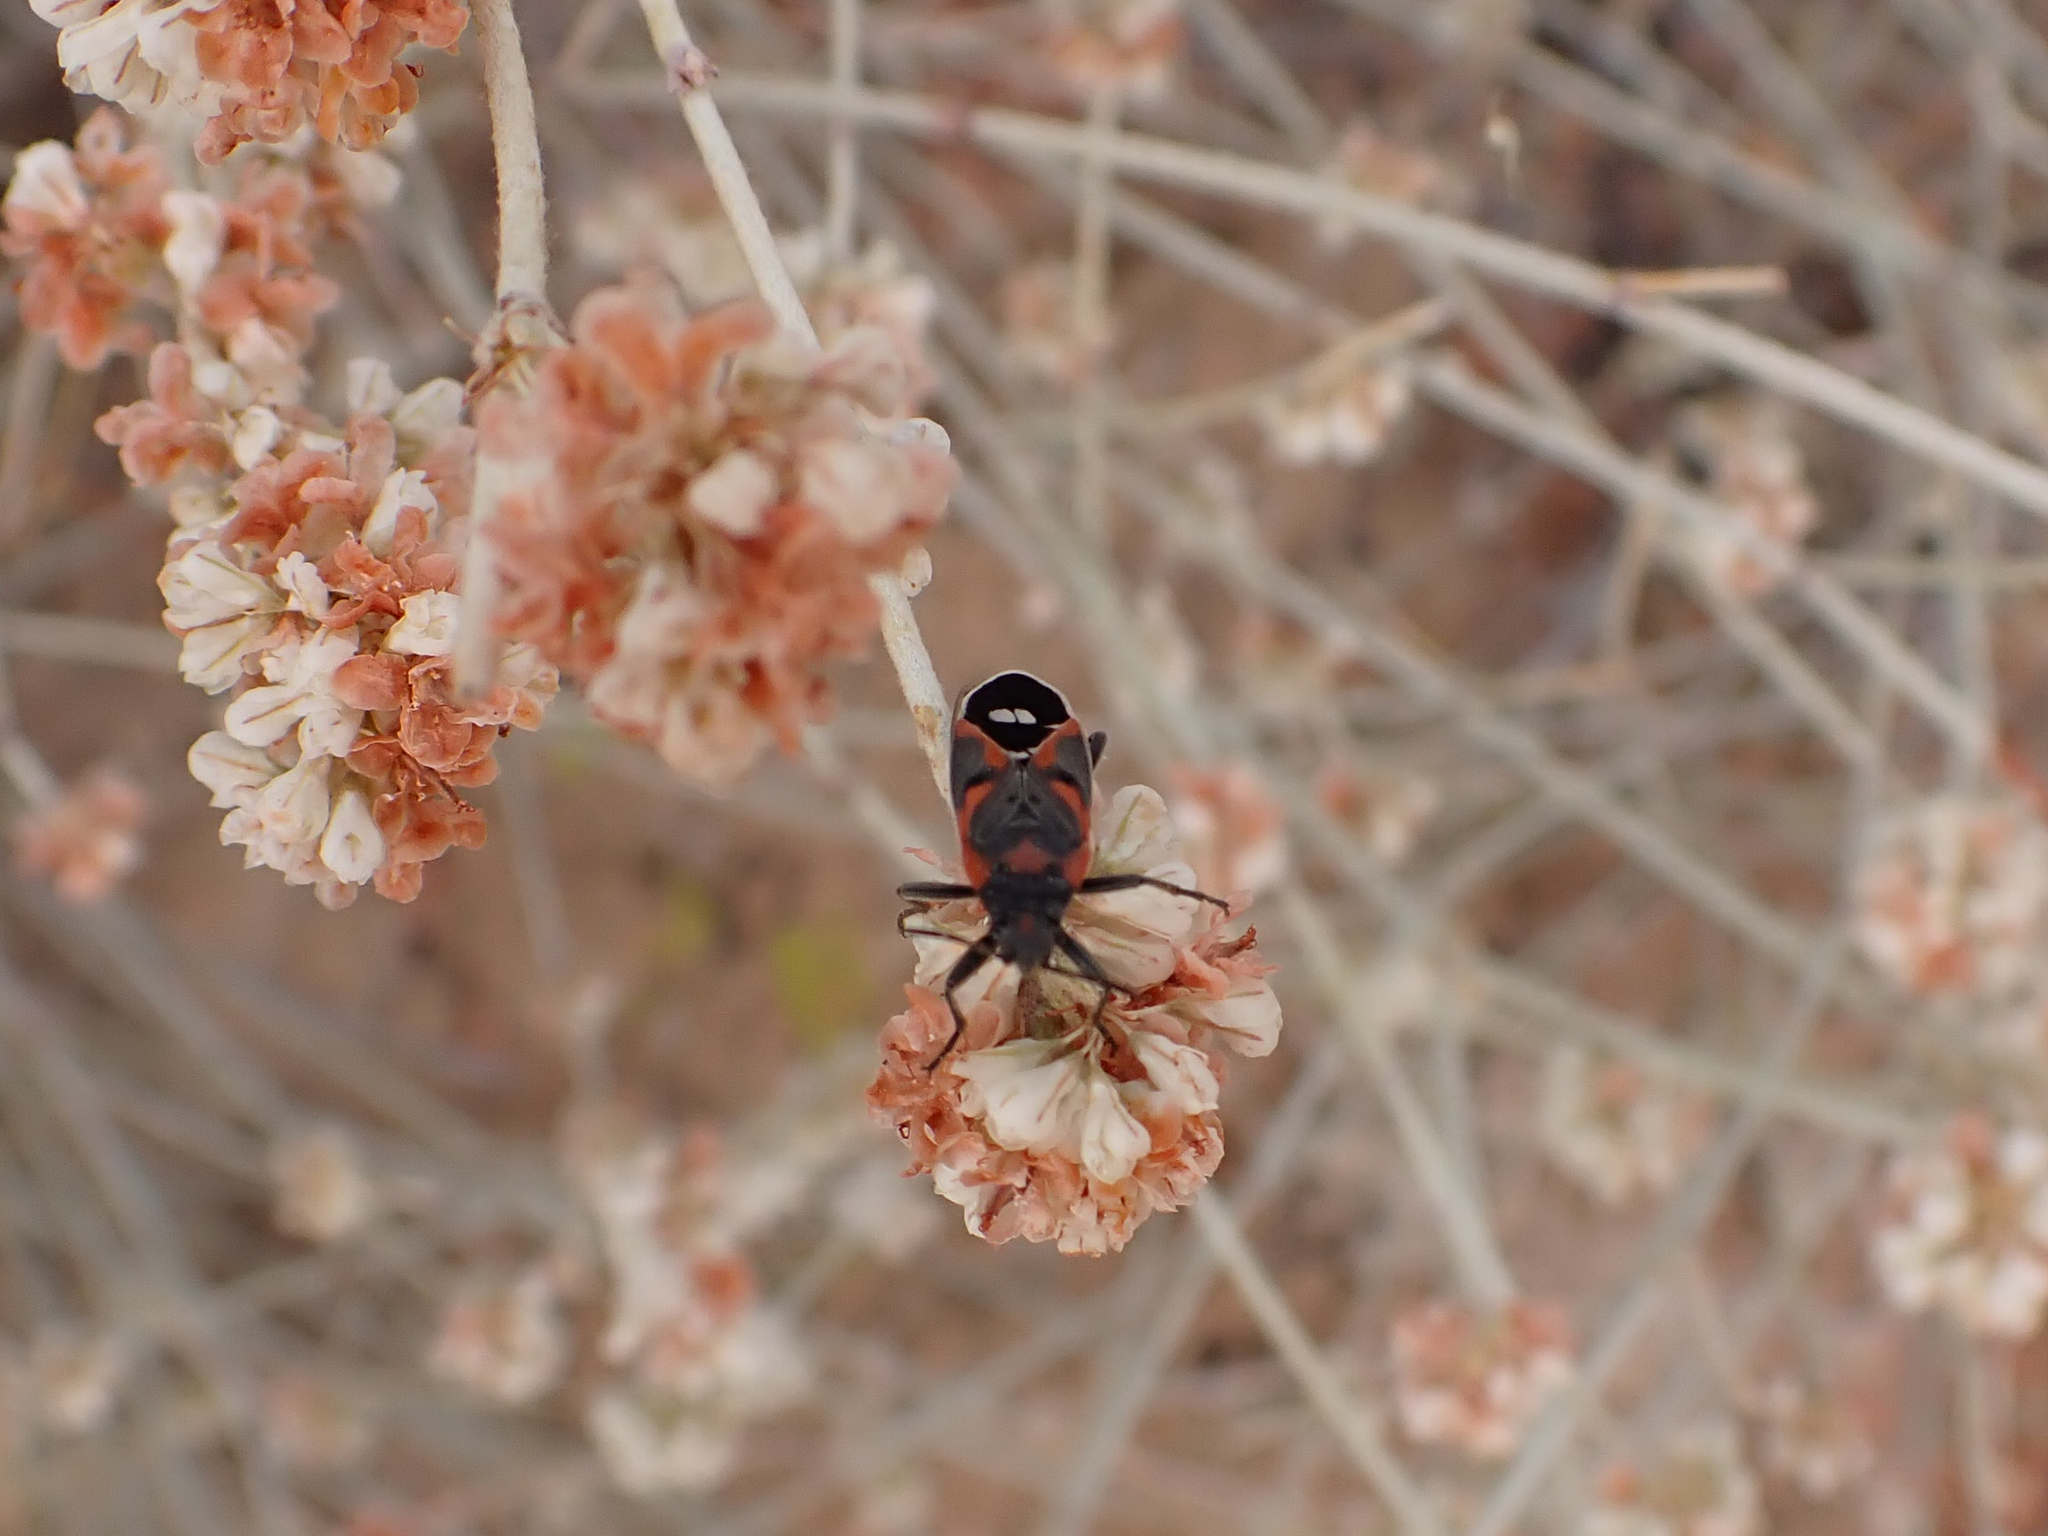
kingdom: Animalia
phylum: Arthropoda
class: Insecta
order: Hemiptera
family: Lygaeidae
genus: Lygaeus
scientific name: Lygaeus kalmii
